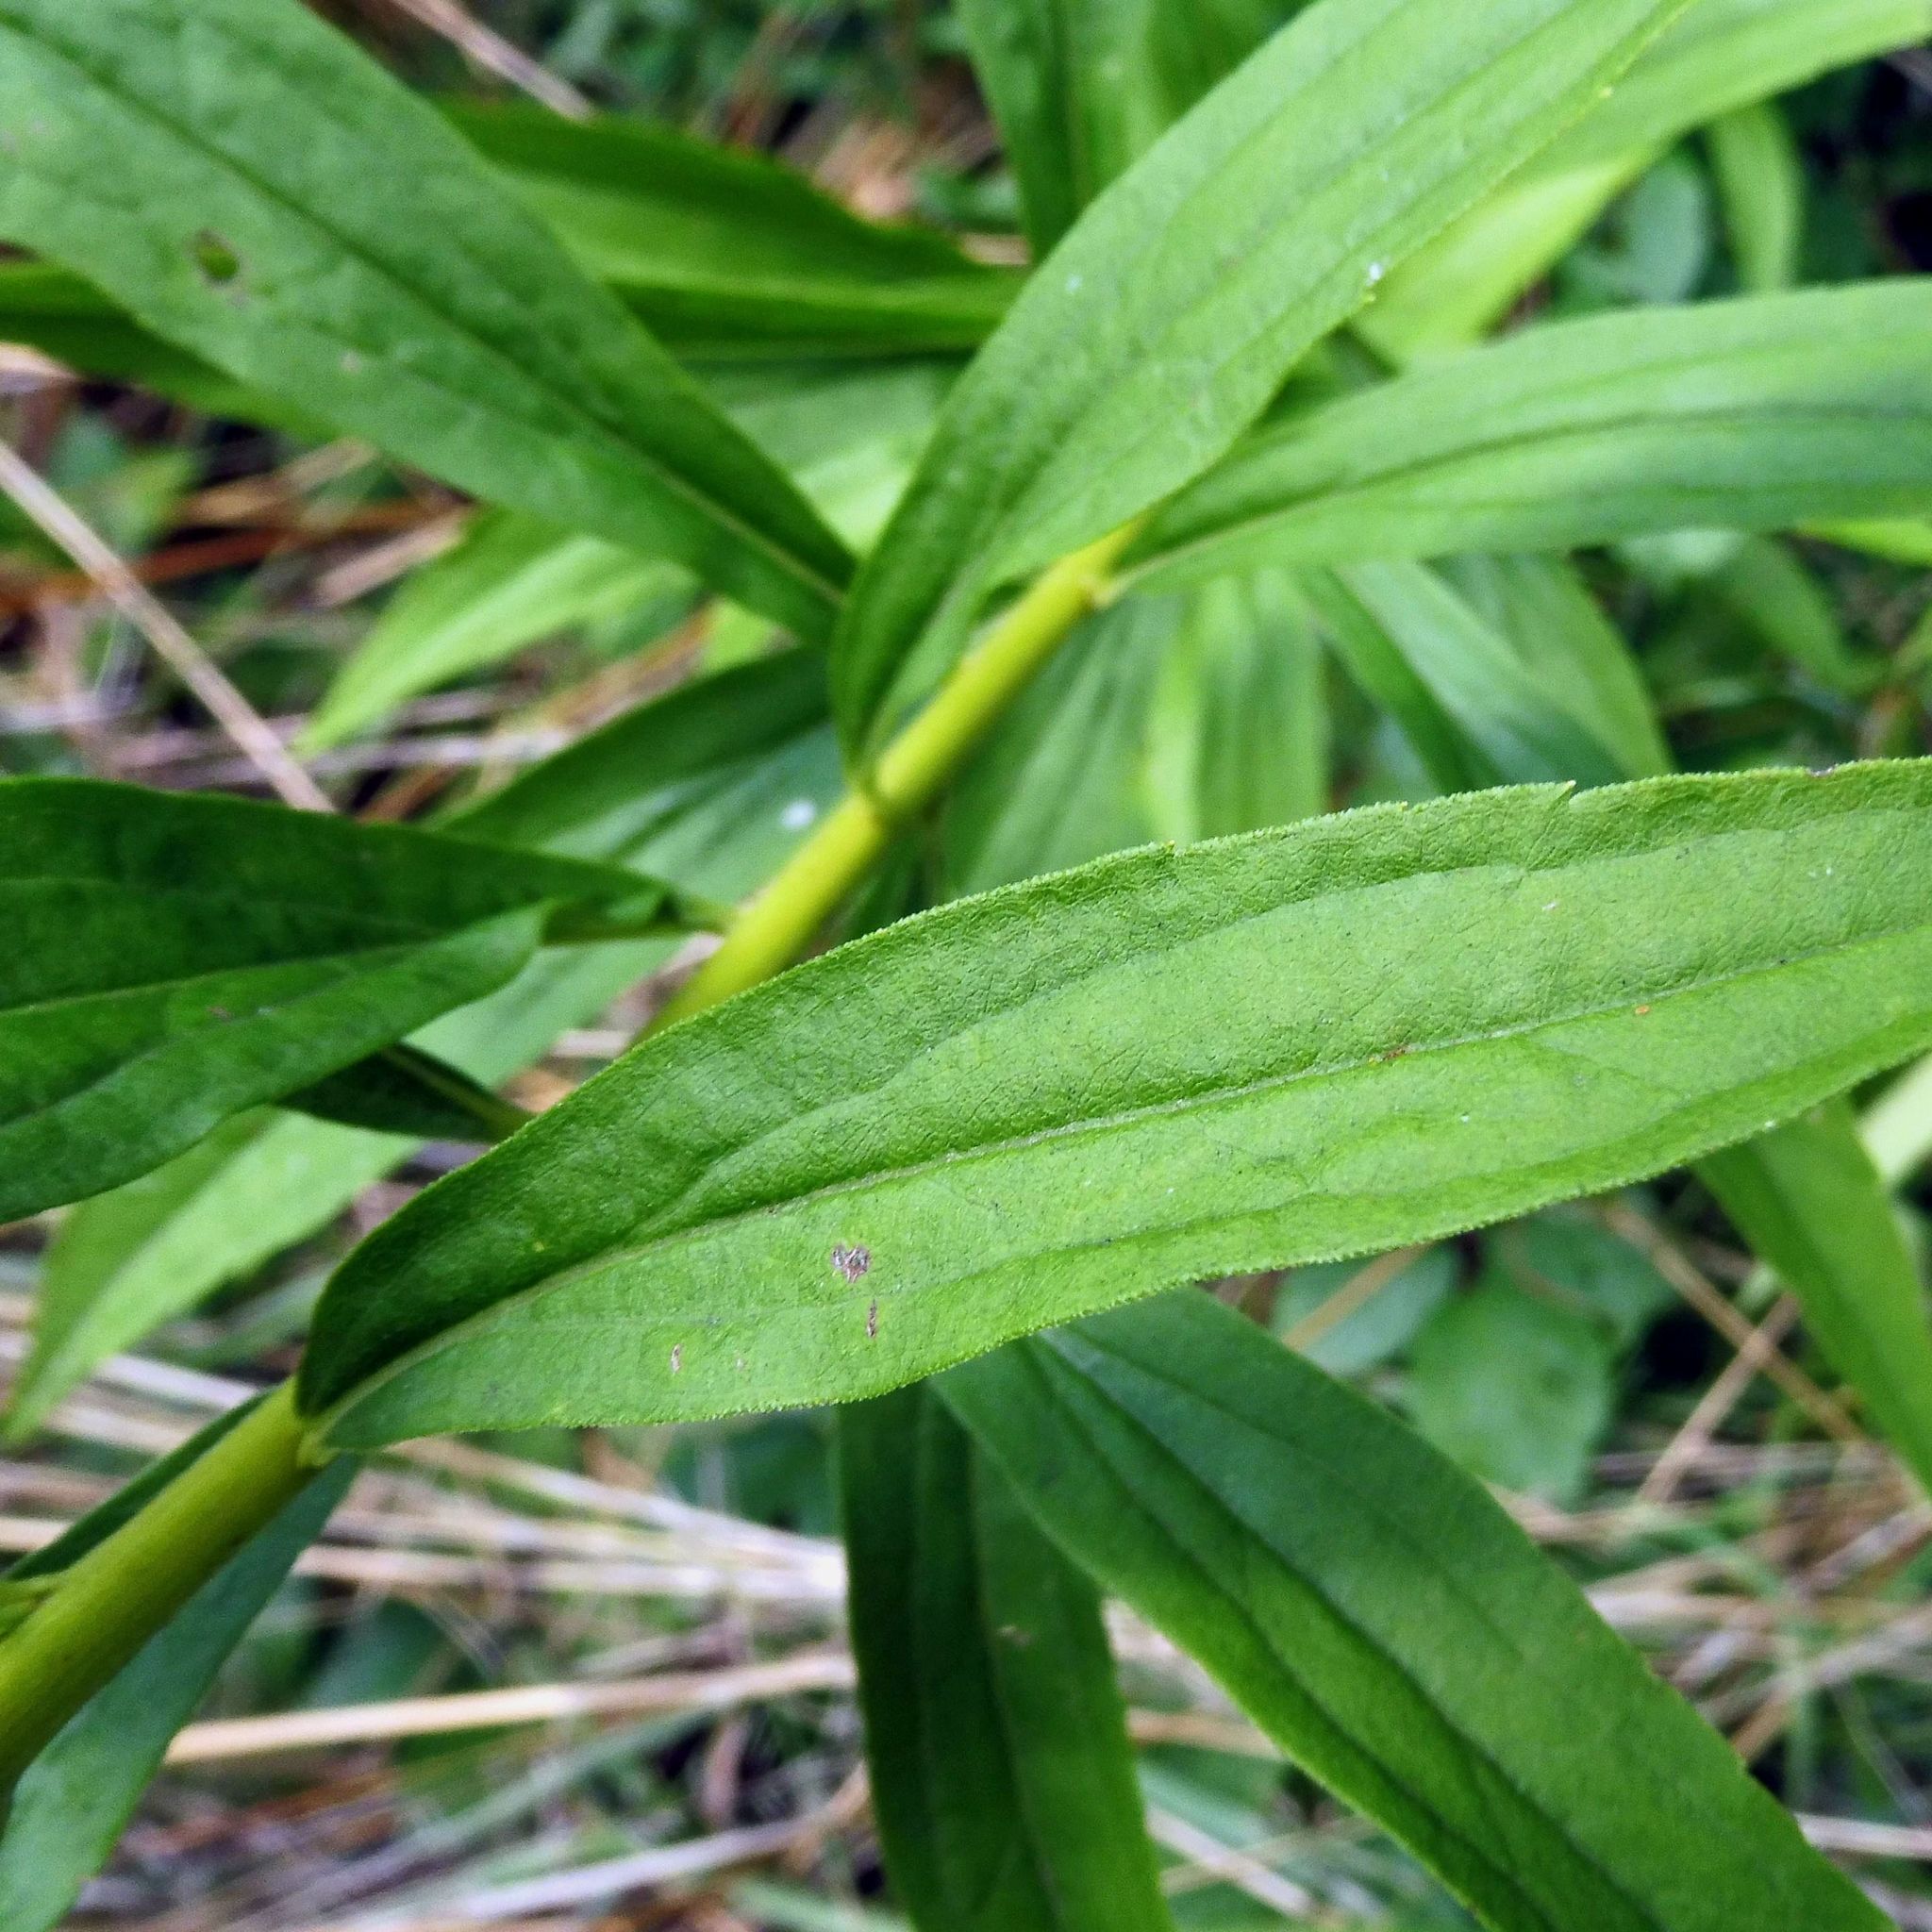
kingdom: Plantae
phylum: Tracheophyta
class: Magnoliopsida
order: Asterales
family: Asteraceae
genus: Solidago
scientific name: Solidago gigantea
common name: Giant goldenrod
